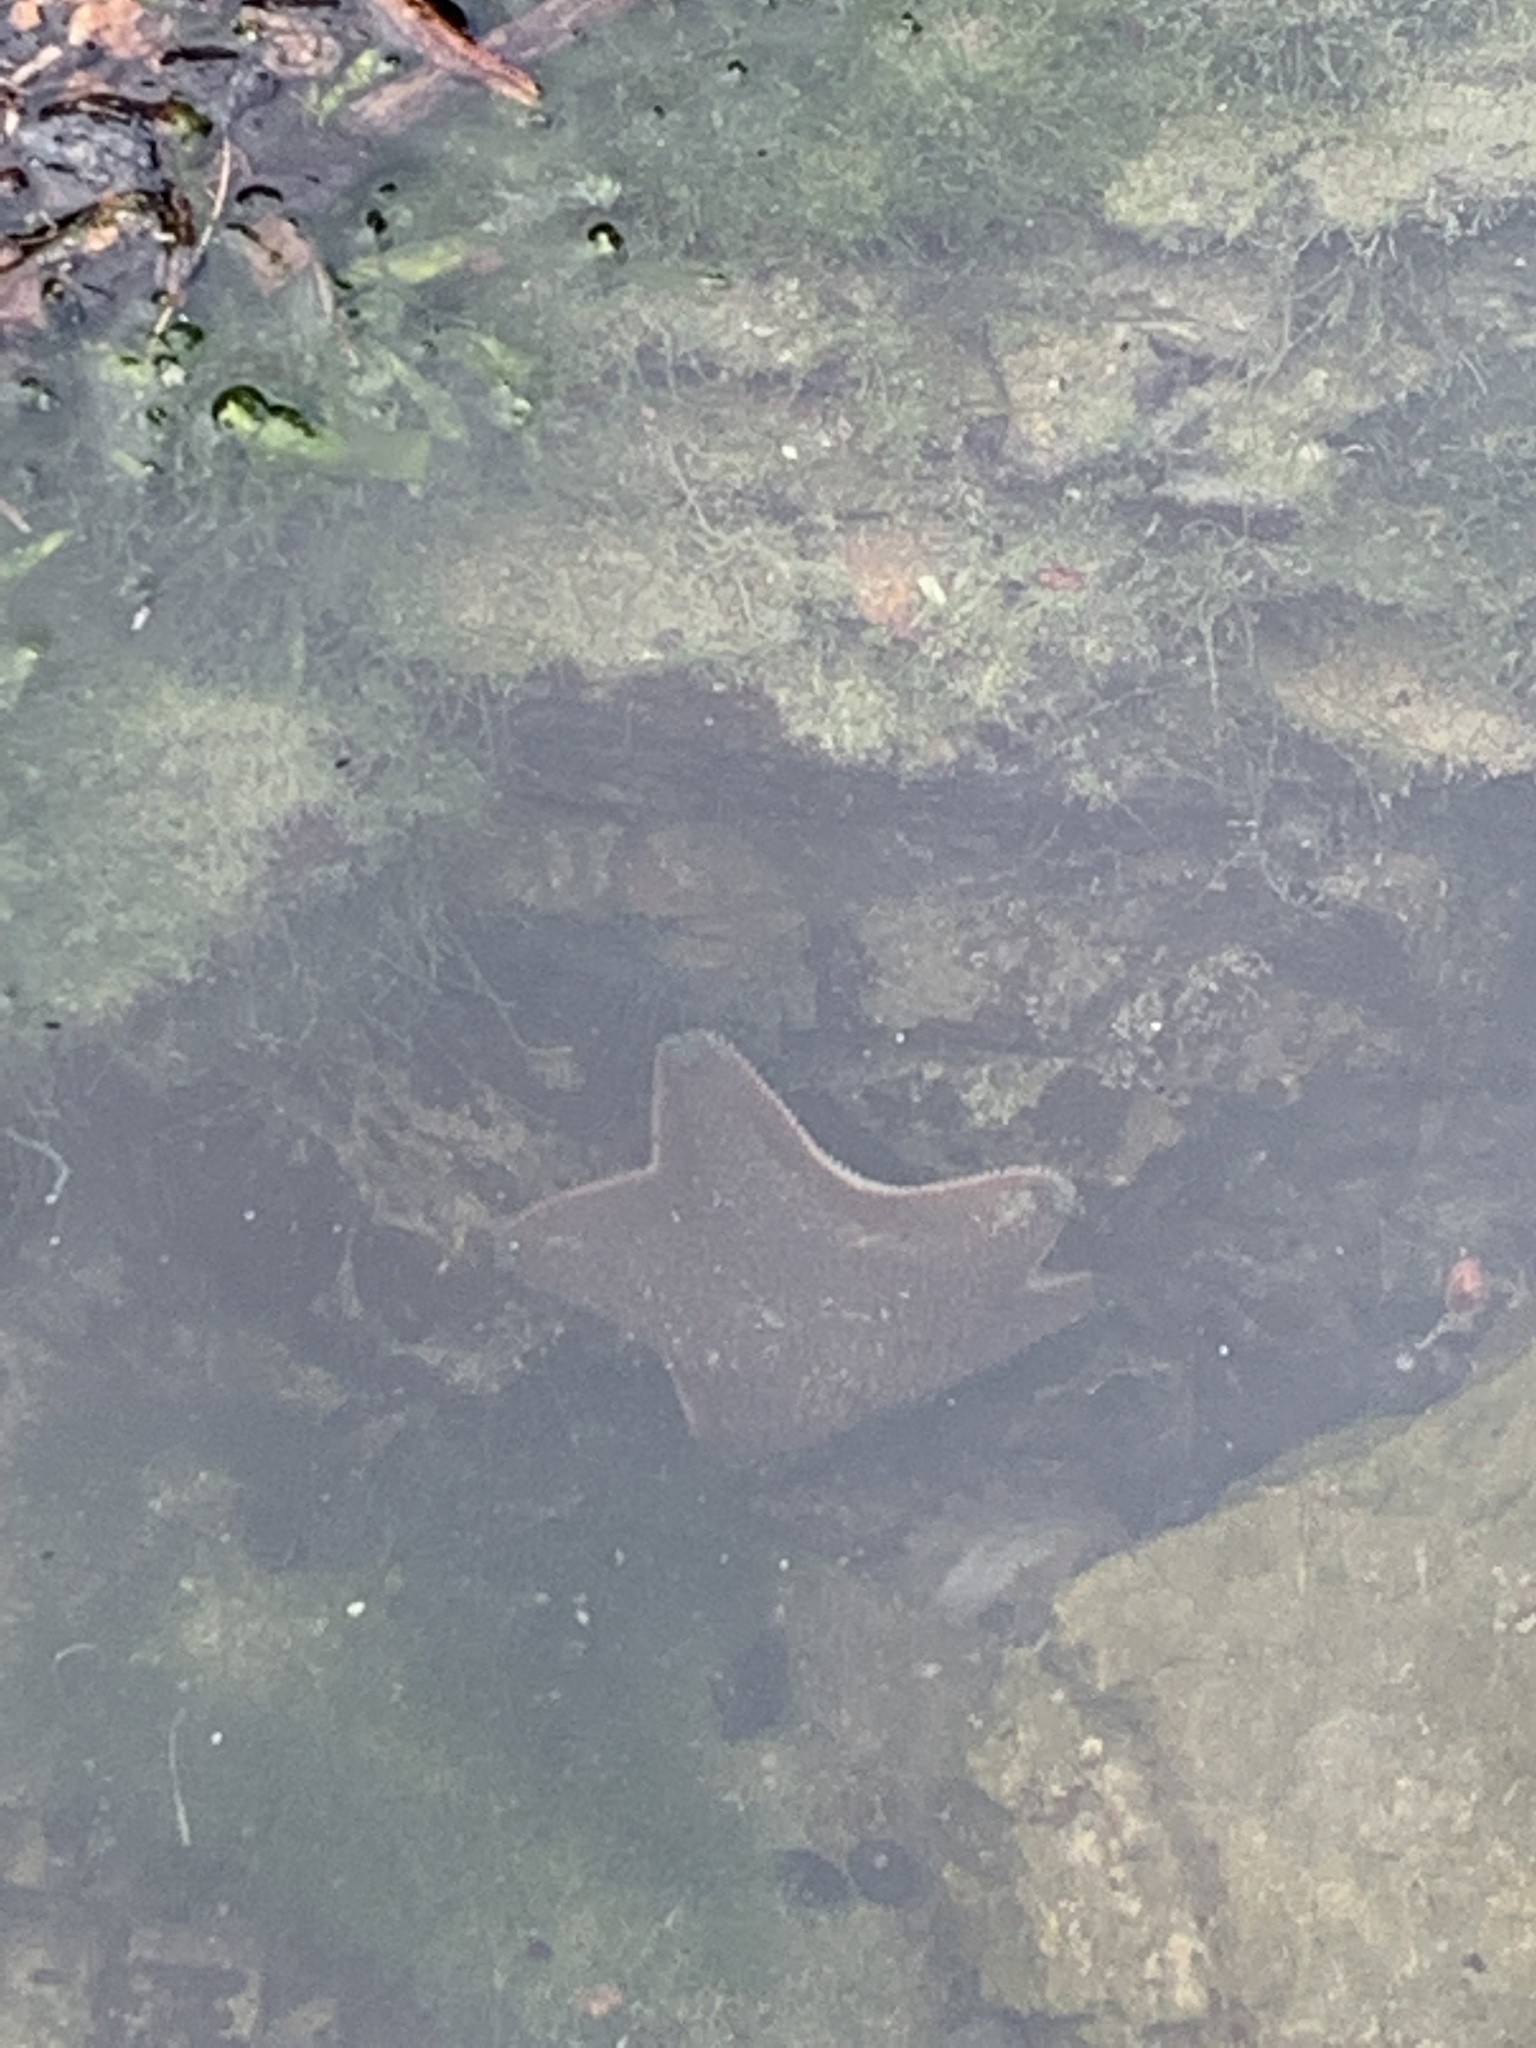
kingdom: Animalia
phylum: Echinodermata
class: Asteroidea
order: Valvatida
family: Asterinidae
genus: Patiriella
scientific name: Patiriella regularis
